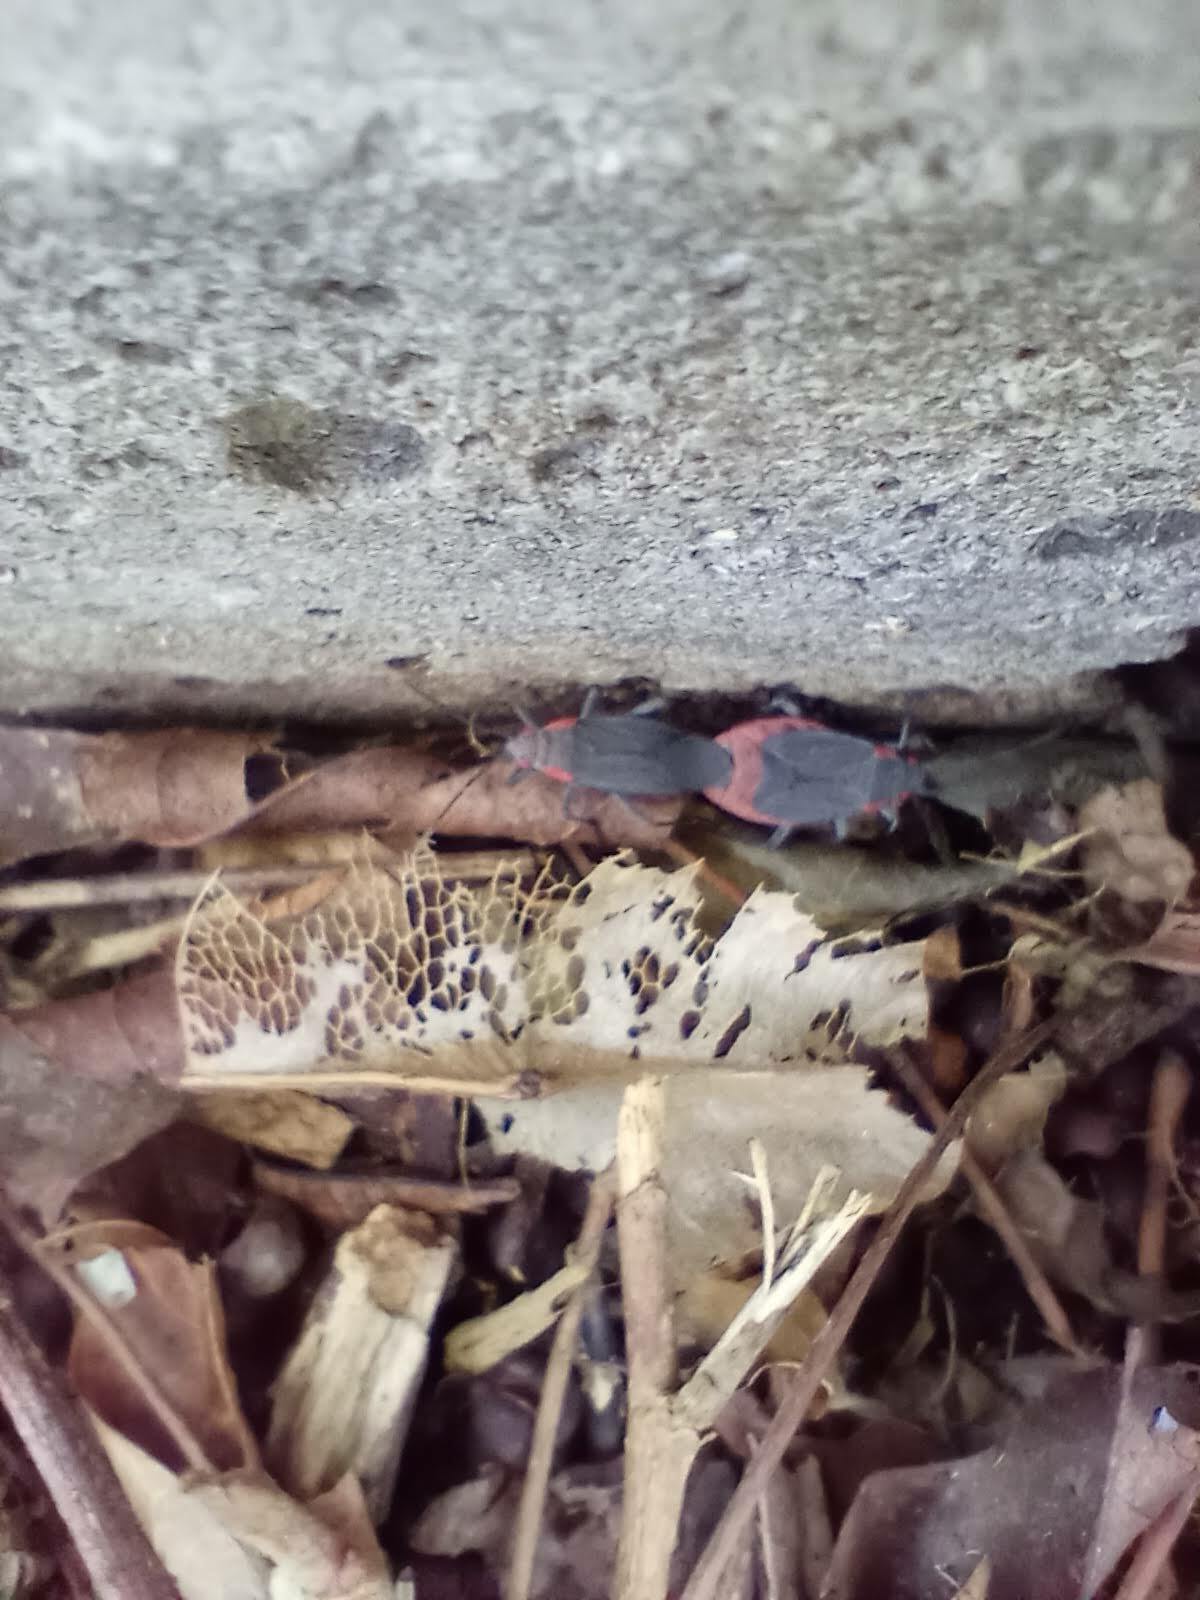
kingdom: Animalia
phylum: Arthropoda
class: Insecta
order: Hemiptera
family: Rhopalidae
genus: Jadera
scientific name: Jadera haematoloma
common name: Red-shouldered bug
